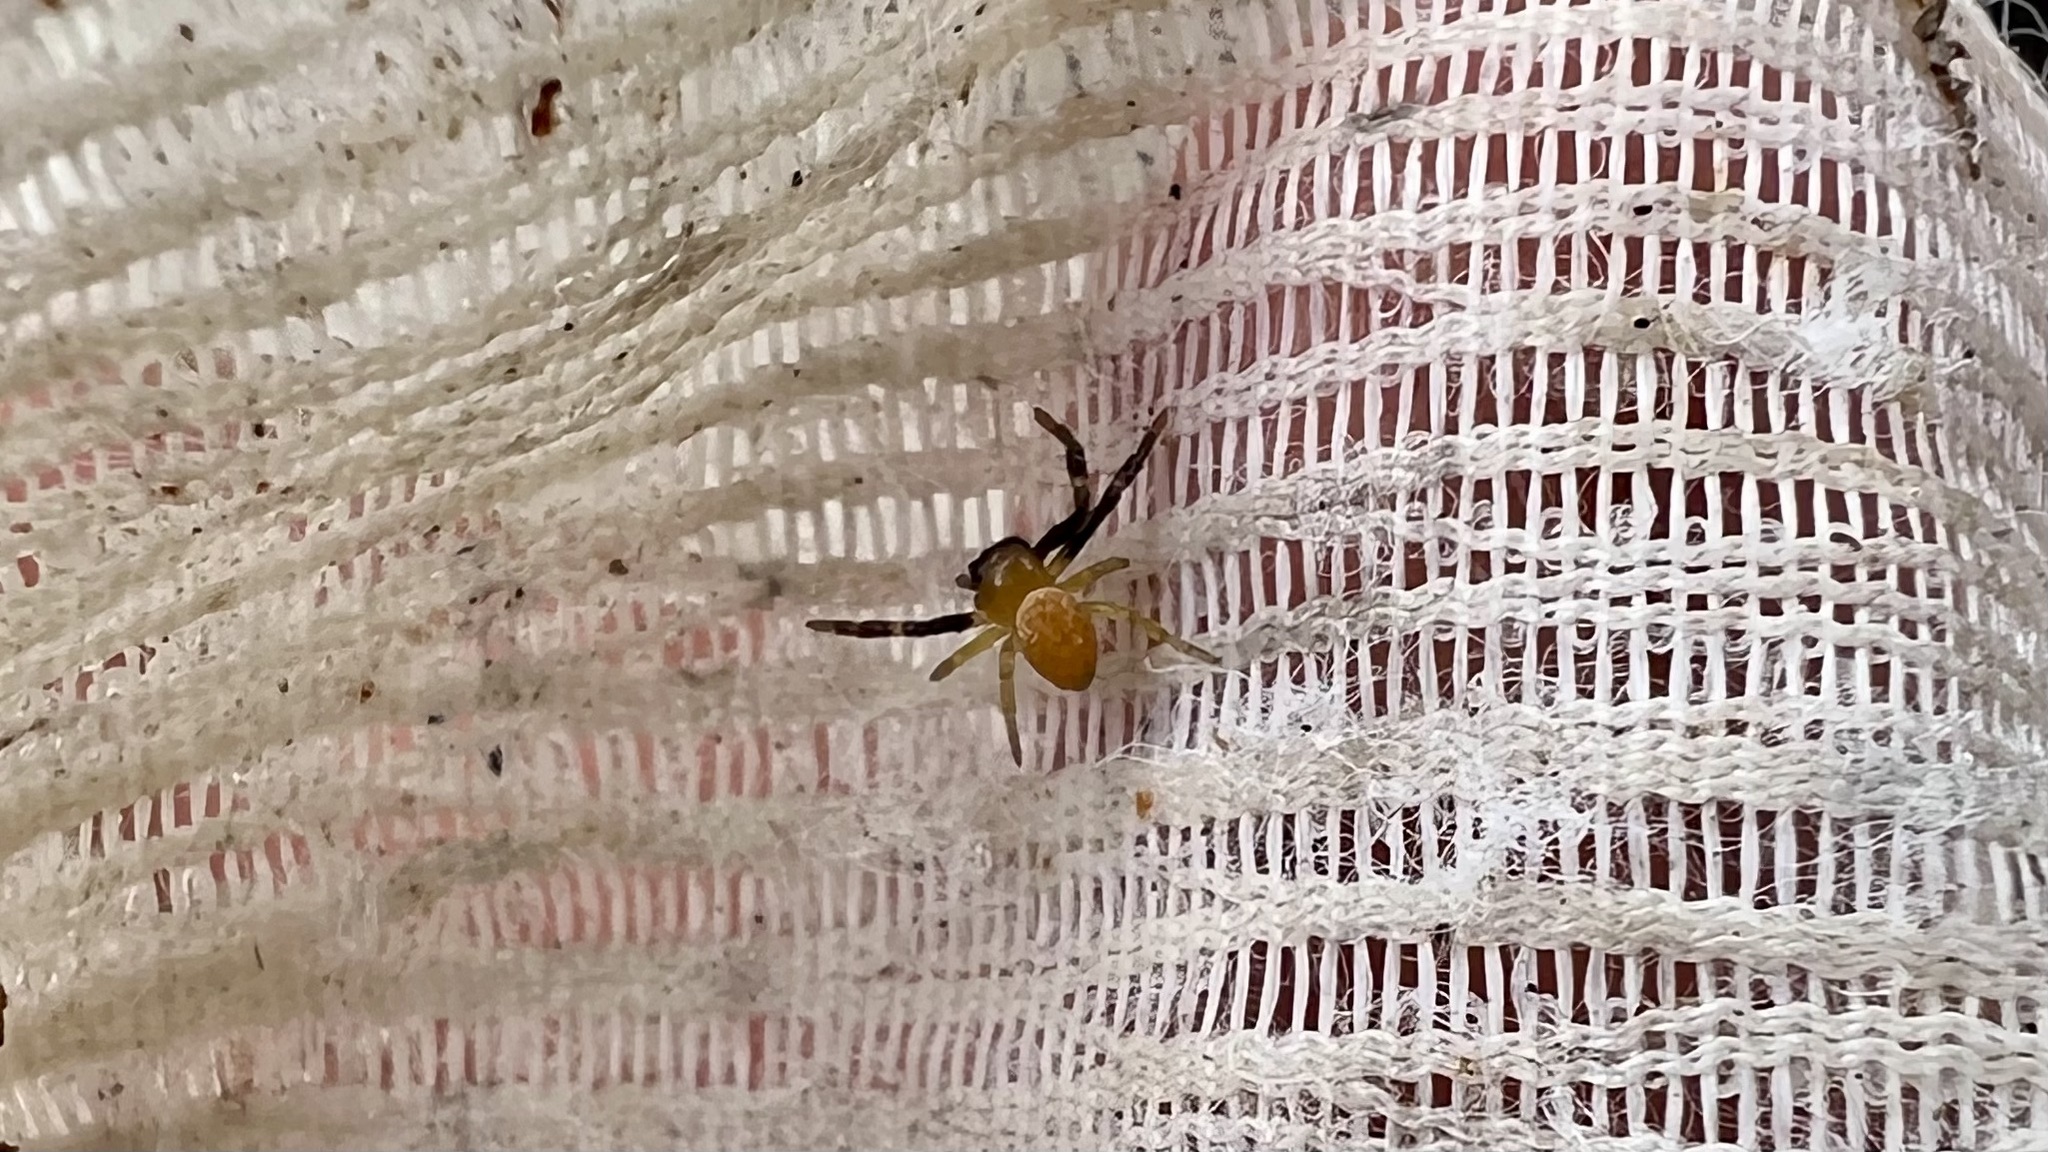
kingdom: Animalia
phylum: Arthropoda
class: Arachnida
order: Araneae
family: Thomisidae
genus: Tharpyna
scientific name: Tharpyna venusta
